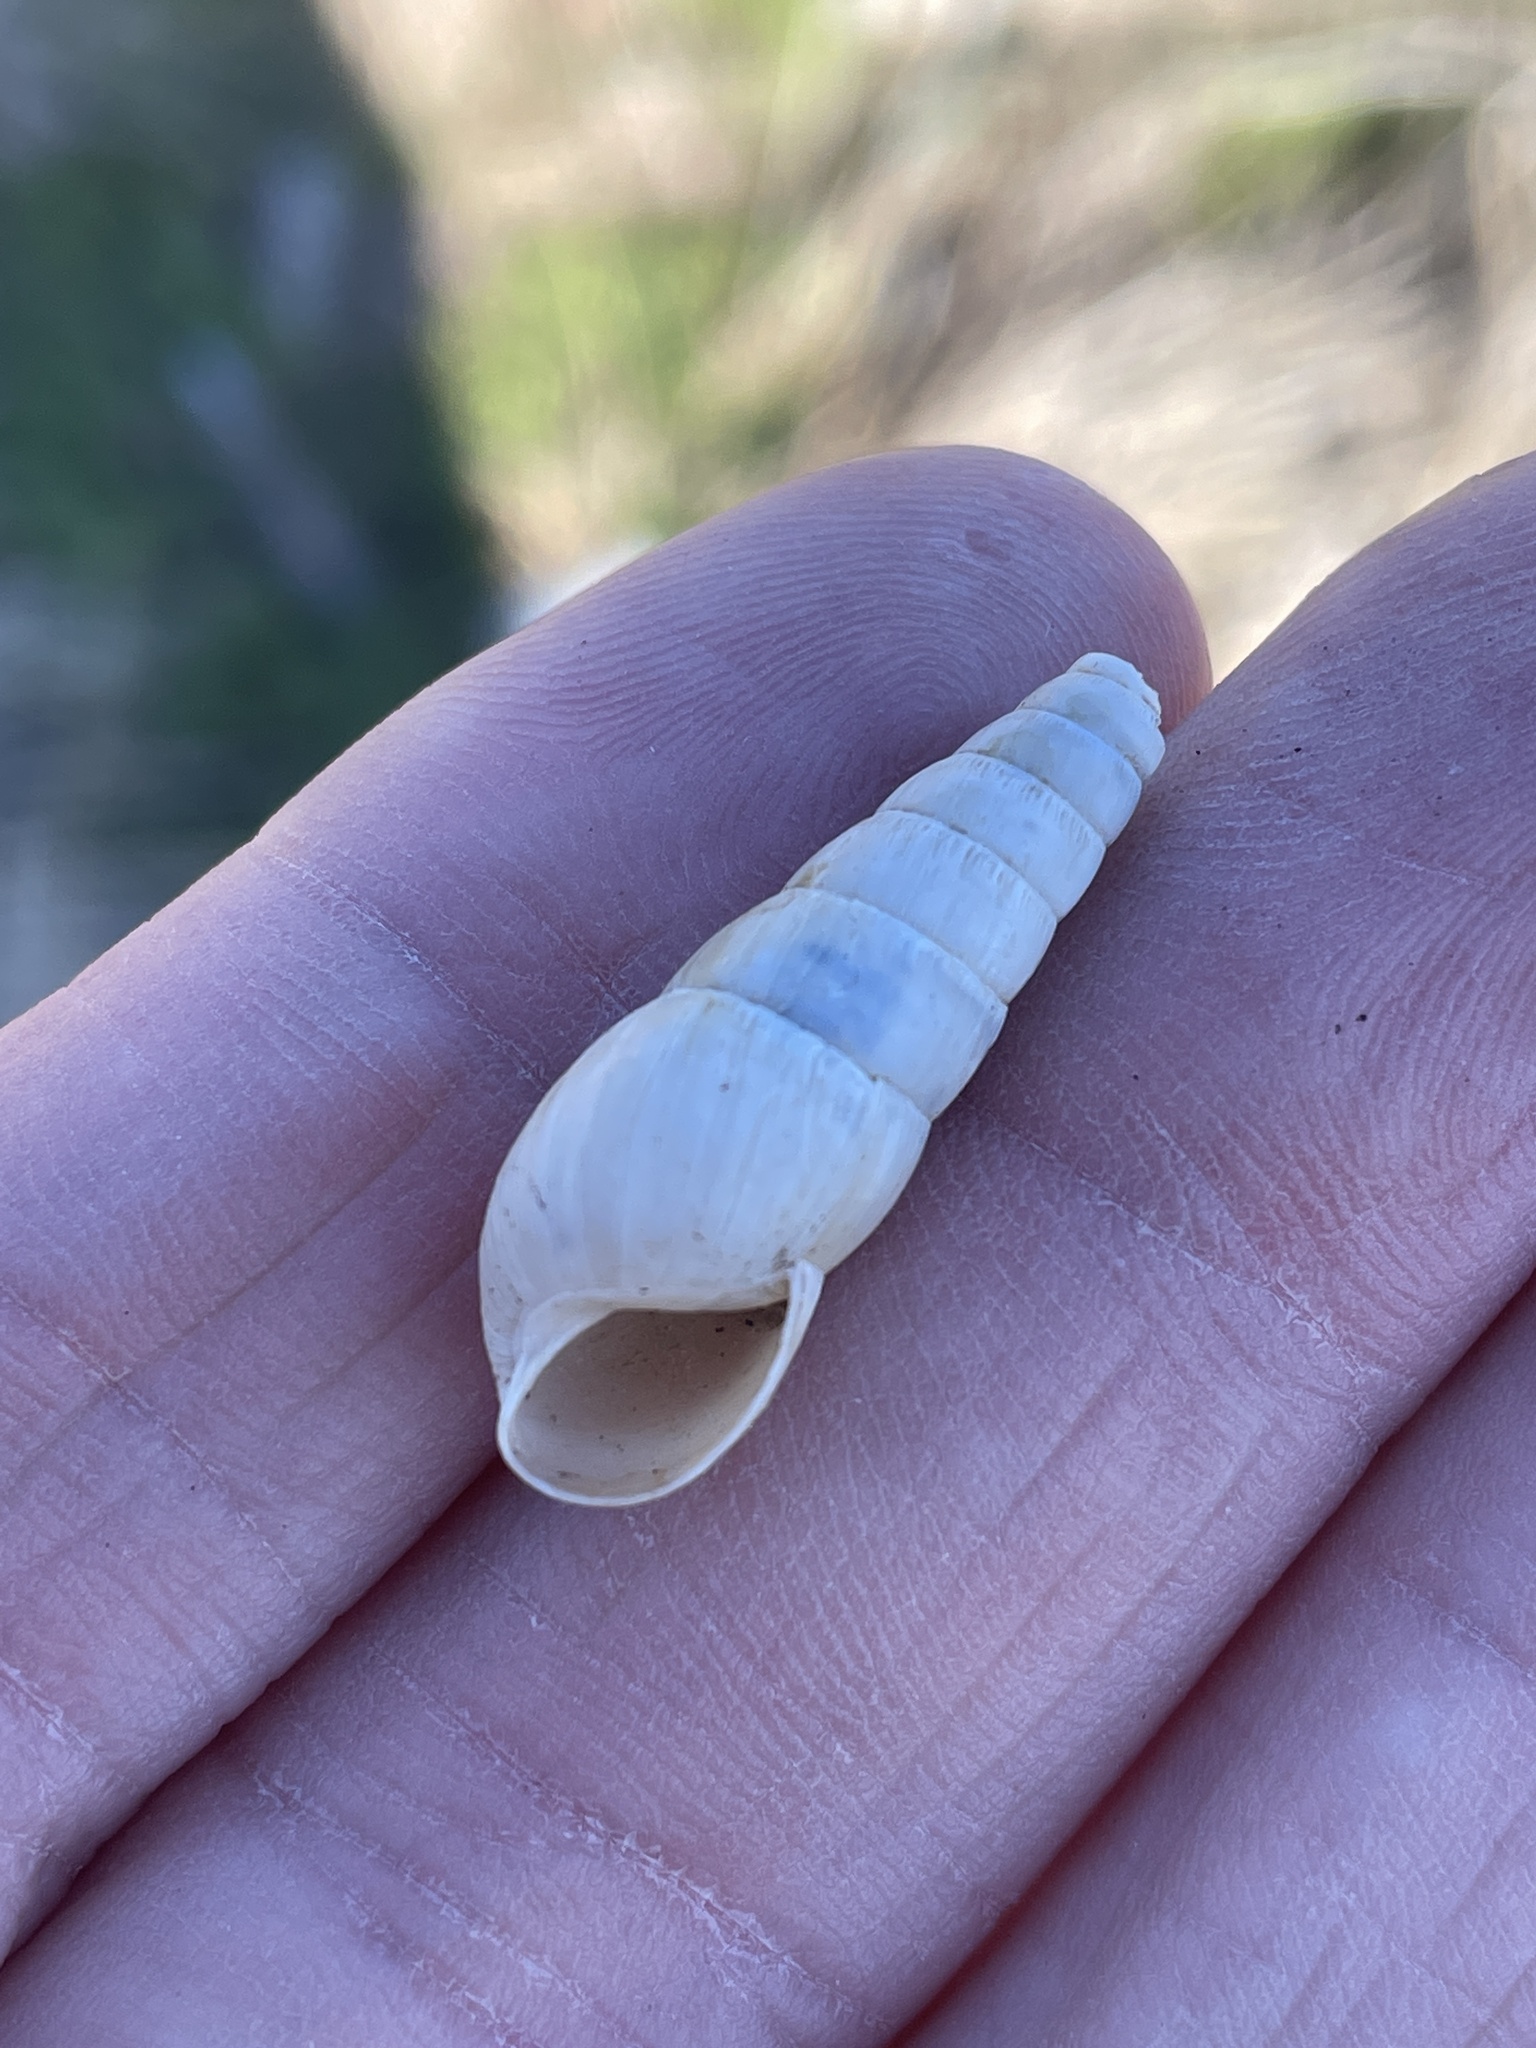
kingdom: Animalia
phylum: Mollusca
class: Gastropoda
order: Stylommatophora
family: Achatinidae
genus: Rumina
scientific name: Rumina decollata
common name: Decollate snail
